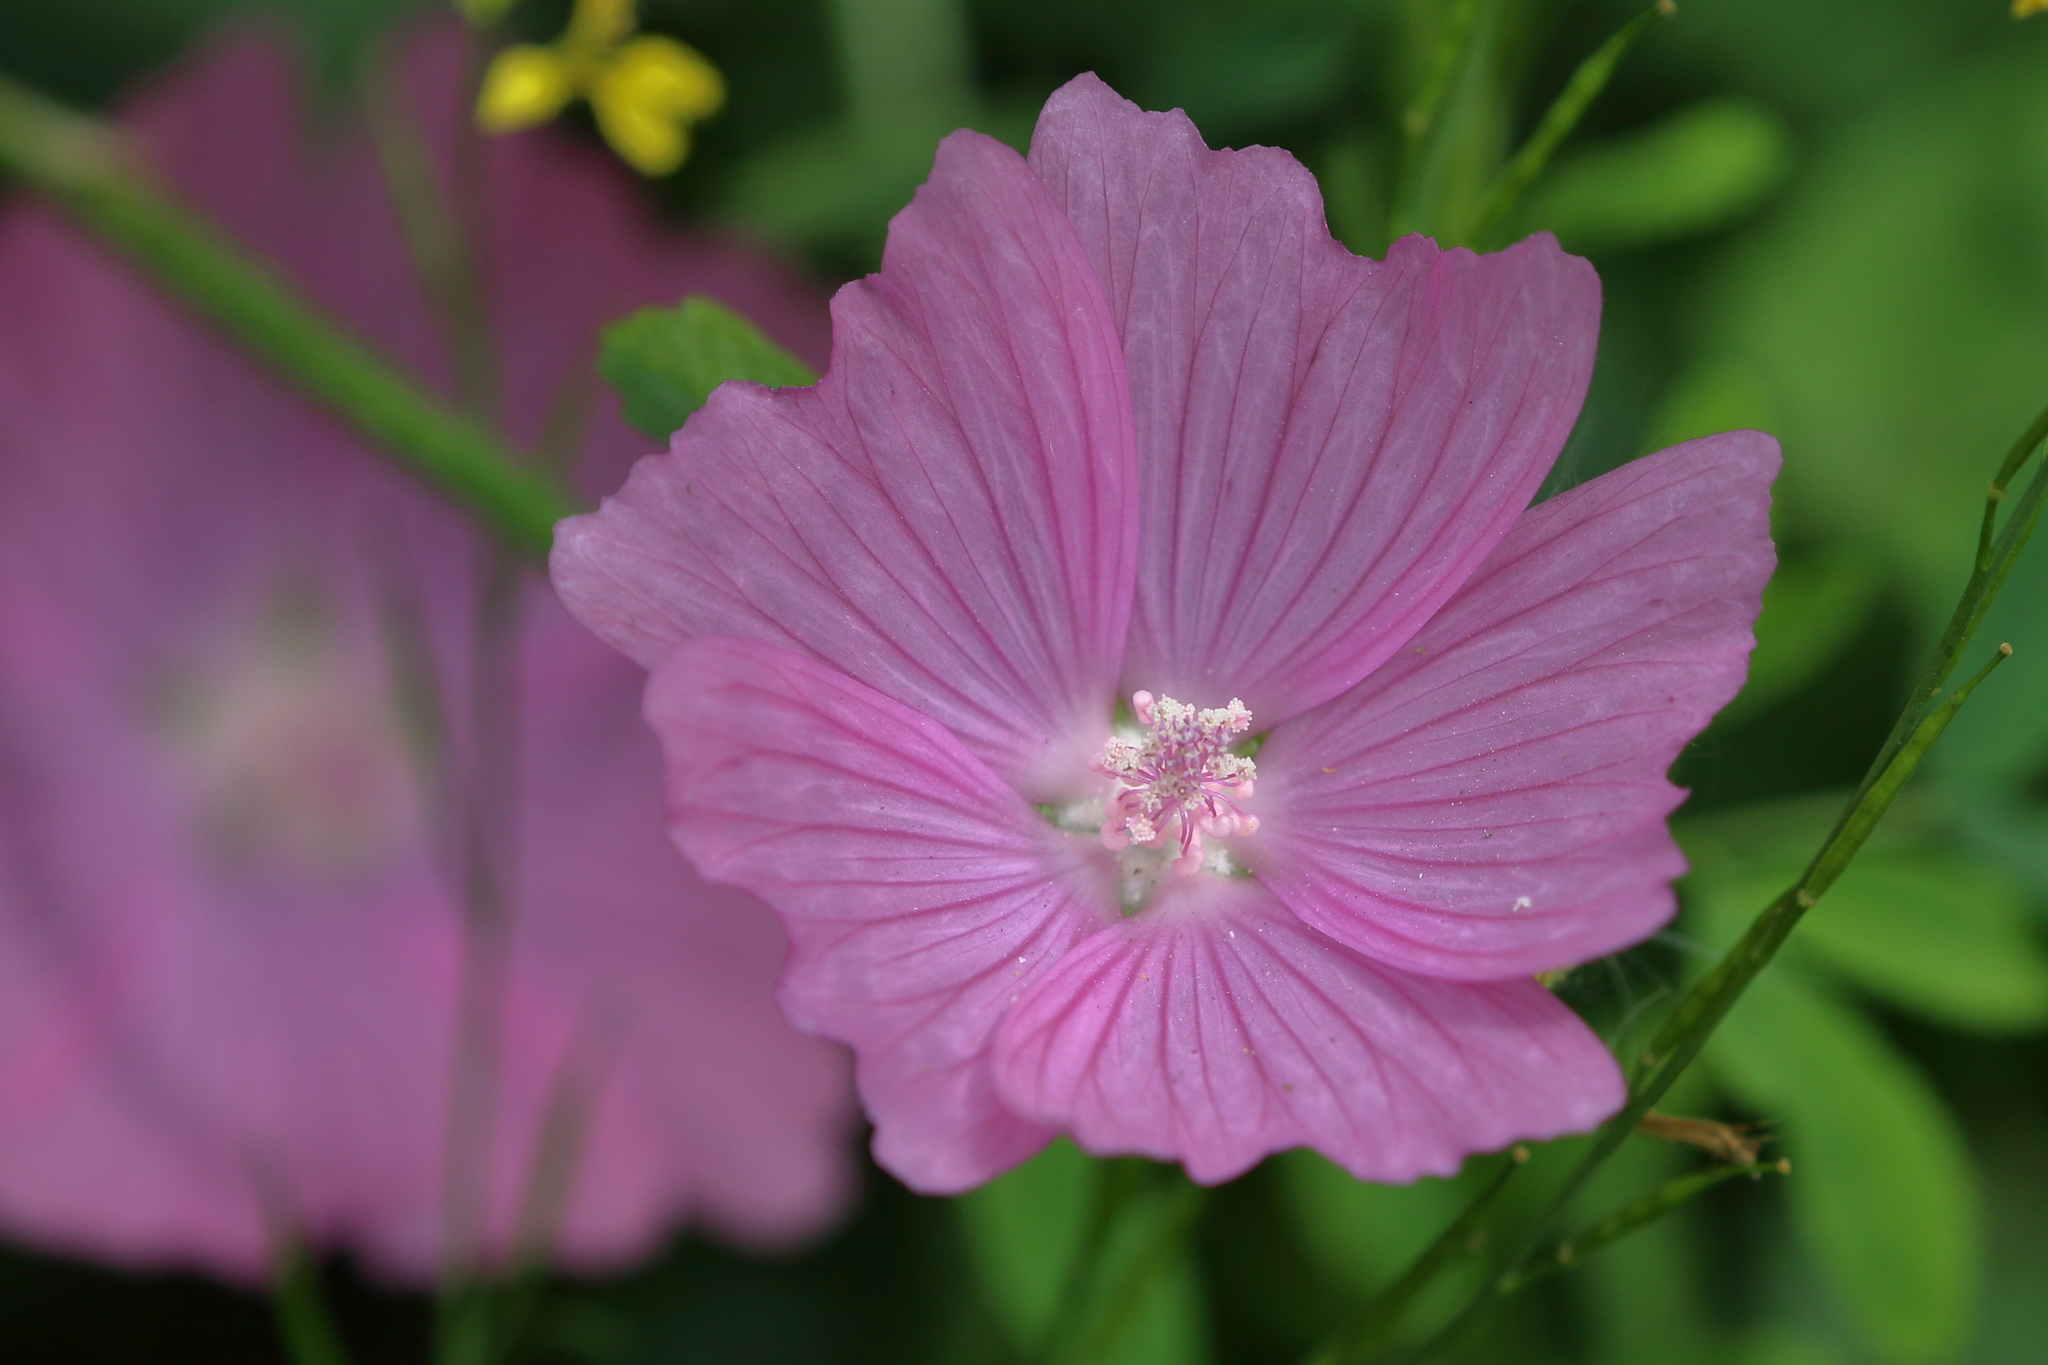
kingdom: Plantae
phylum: Tracheophyta
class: Magnoliopsida
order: Malvales
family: Malvaceae
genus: Malva
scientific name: Malva moschata
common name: Musk mallow
